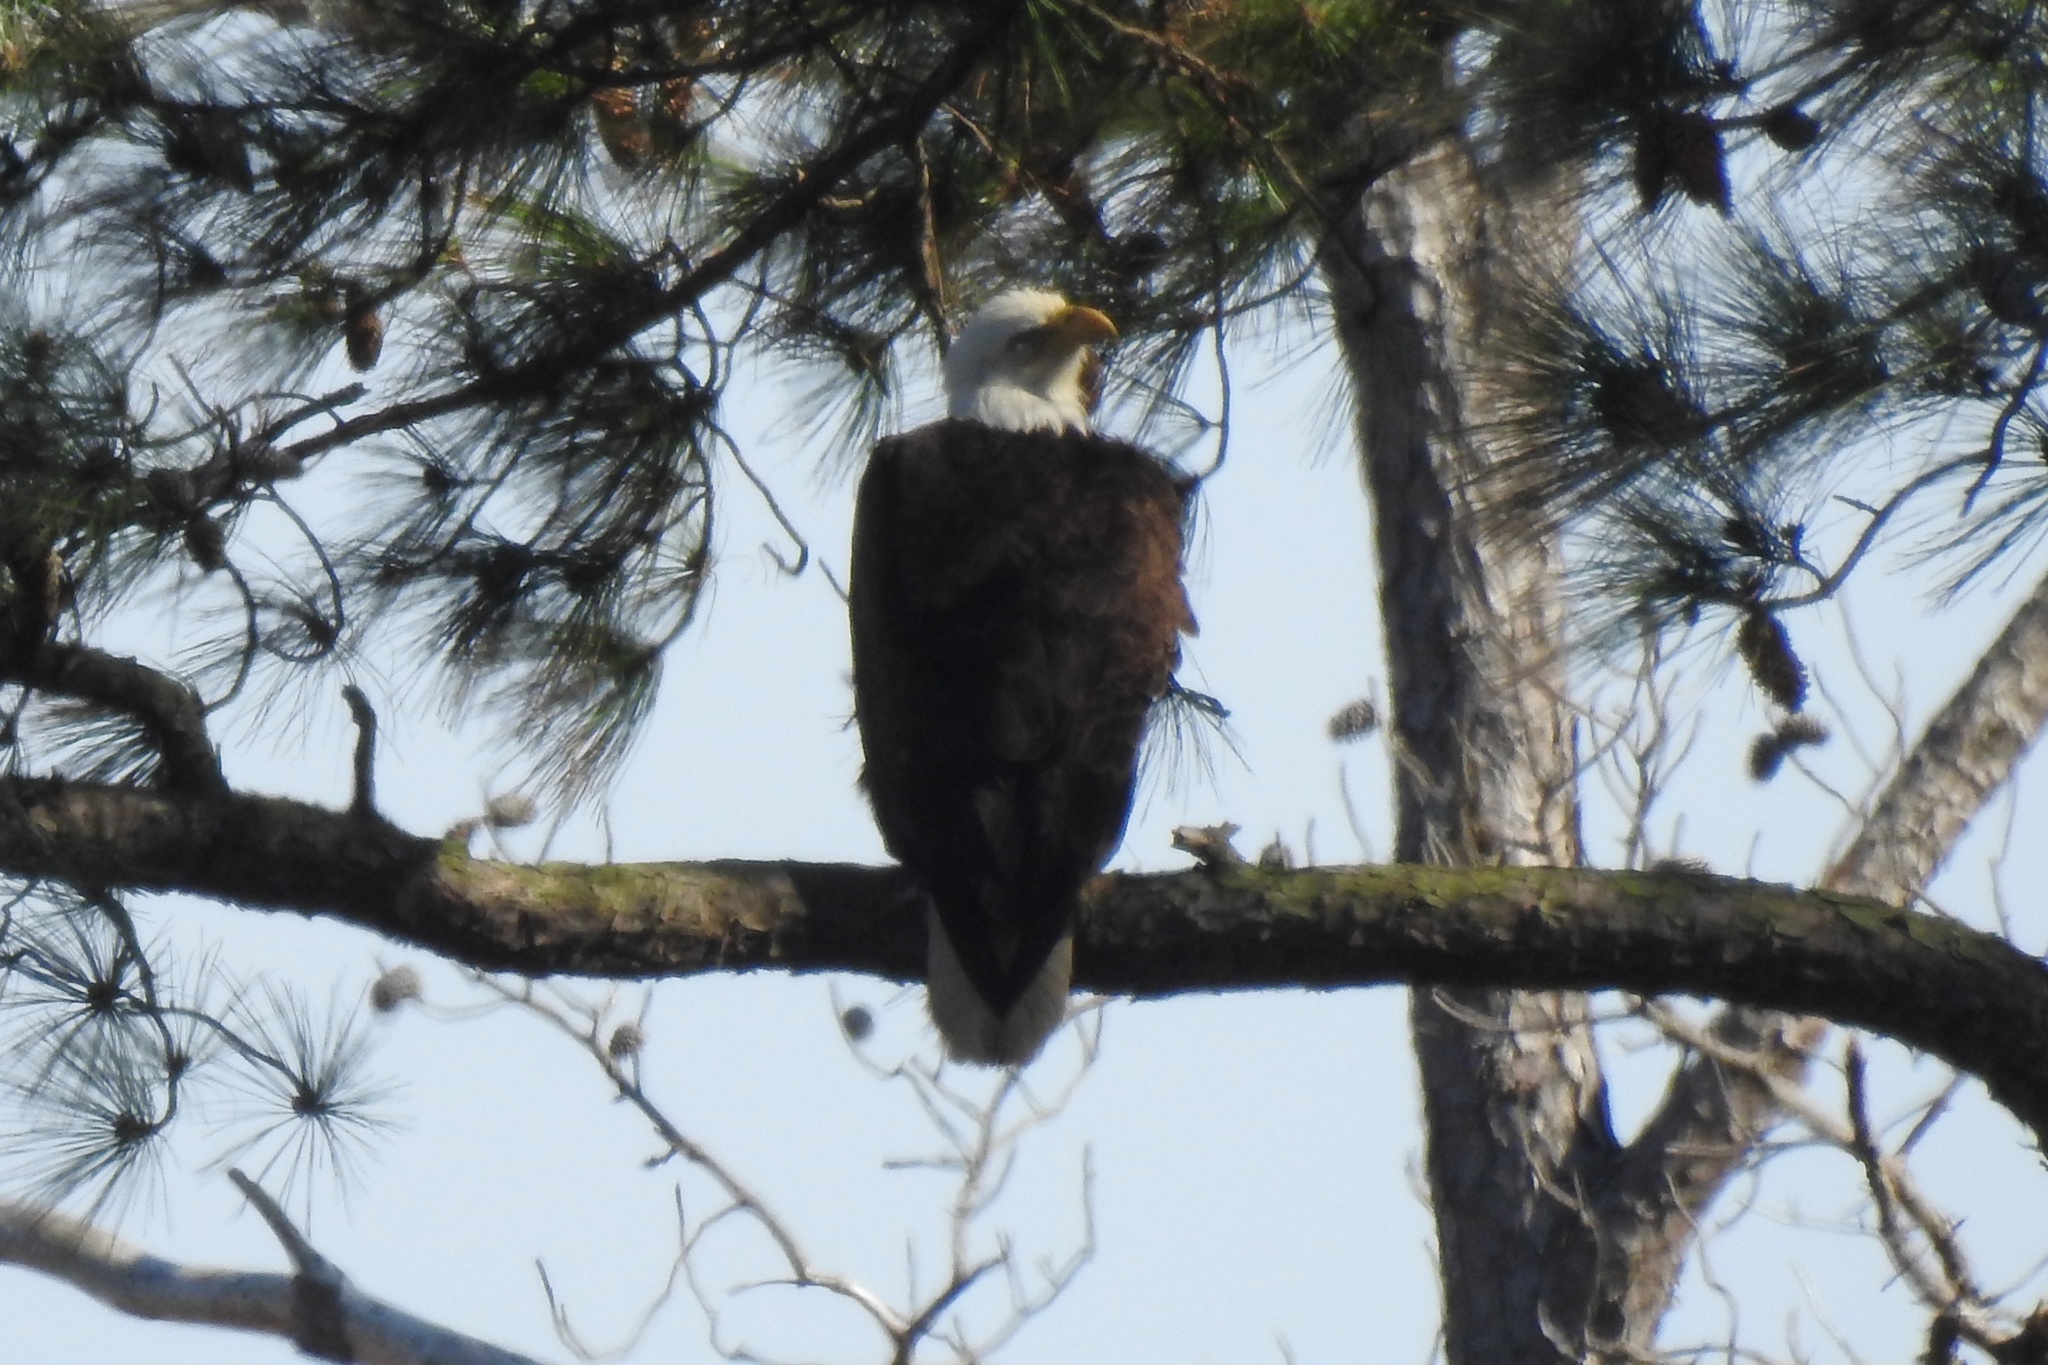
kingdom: Animalia
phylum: Chordata
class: Aves
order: Accipitriformes
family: Accipitridae
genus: Haliaeetus
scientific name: Haliaeetus leucocephalus
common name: Bald eagle
